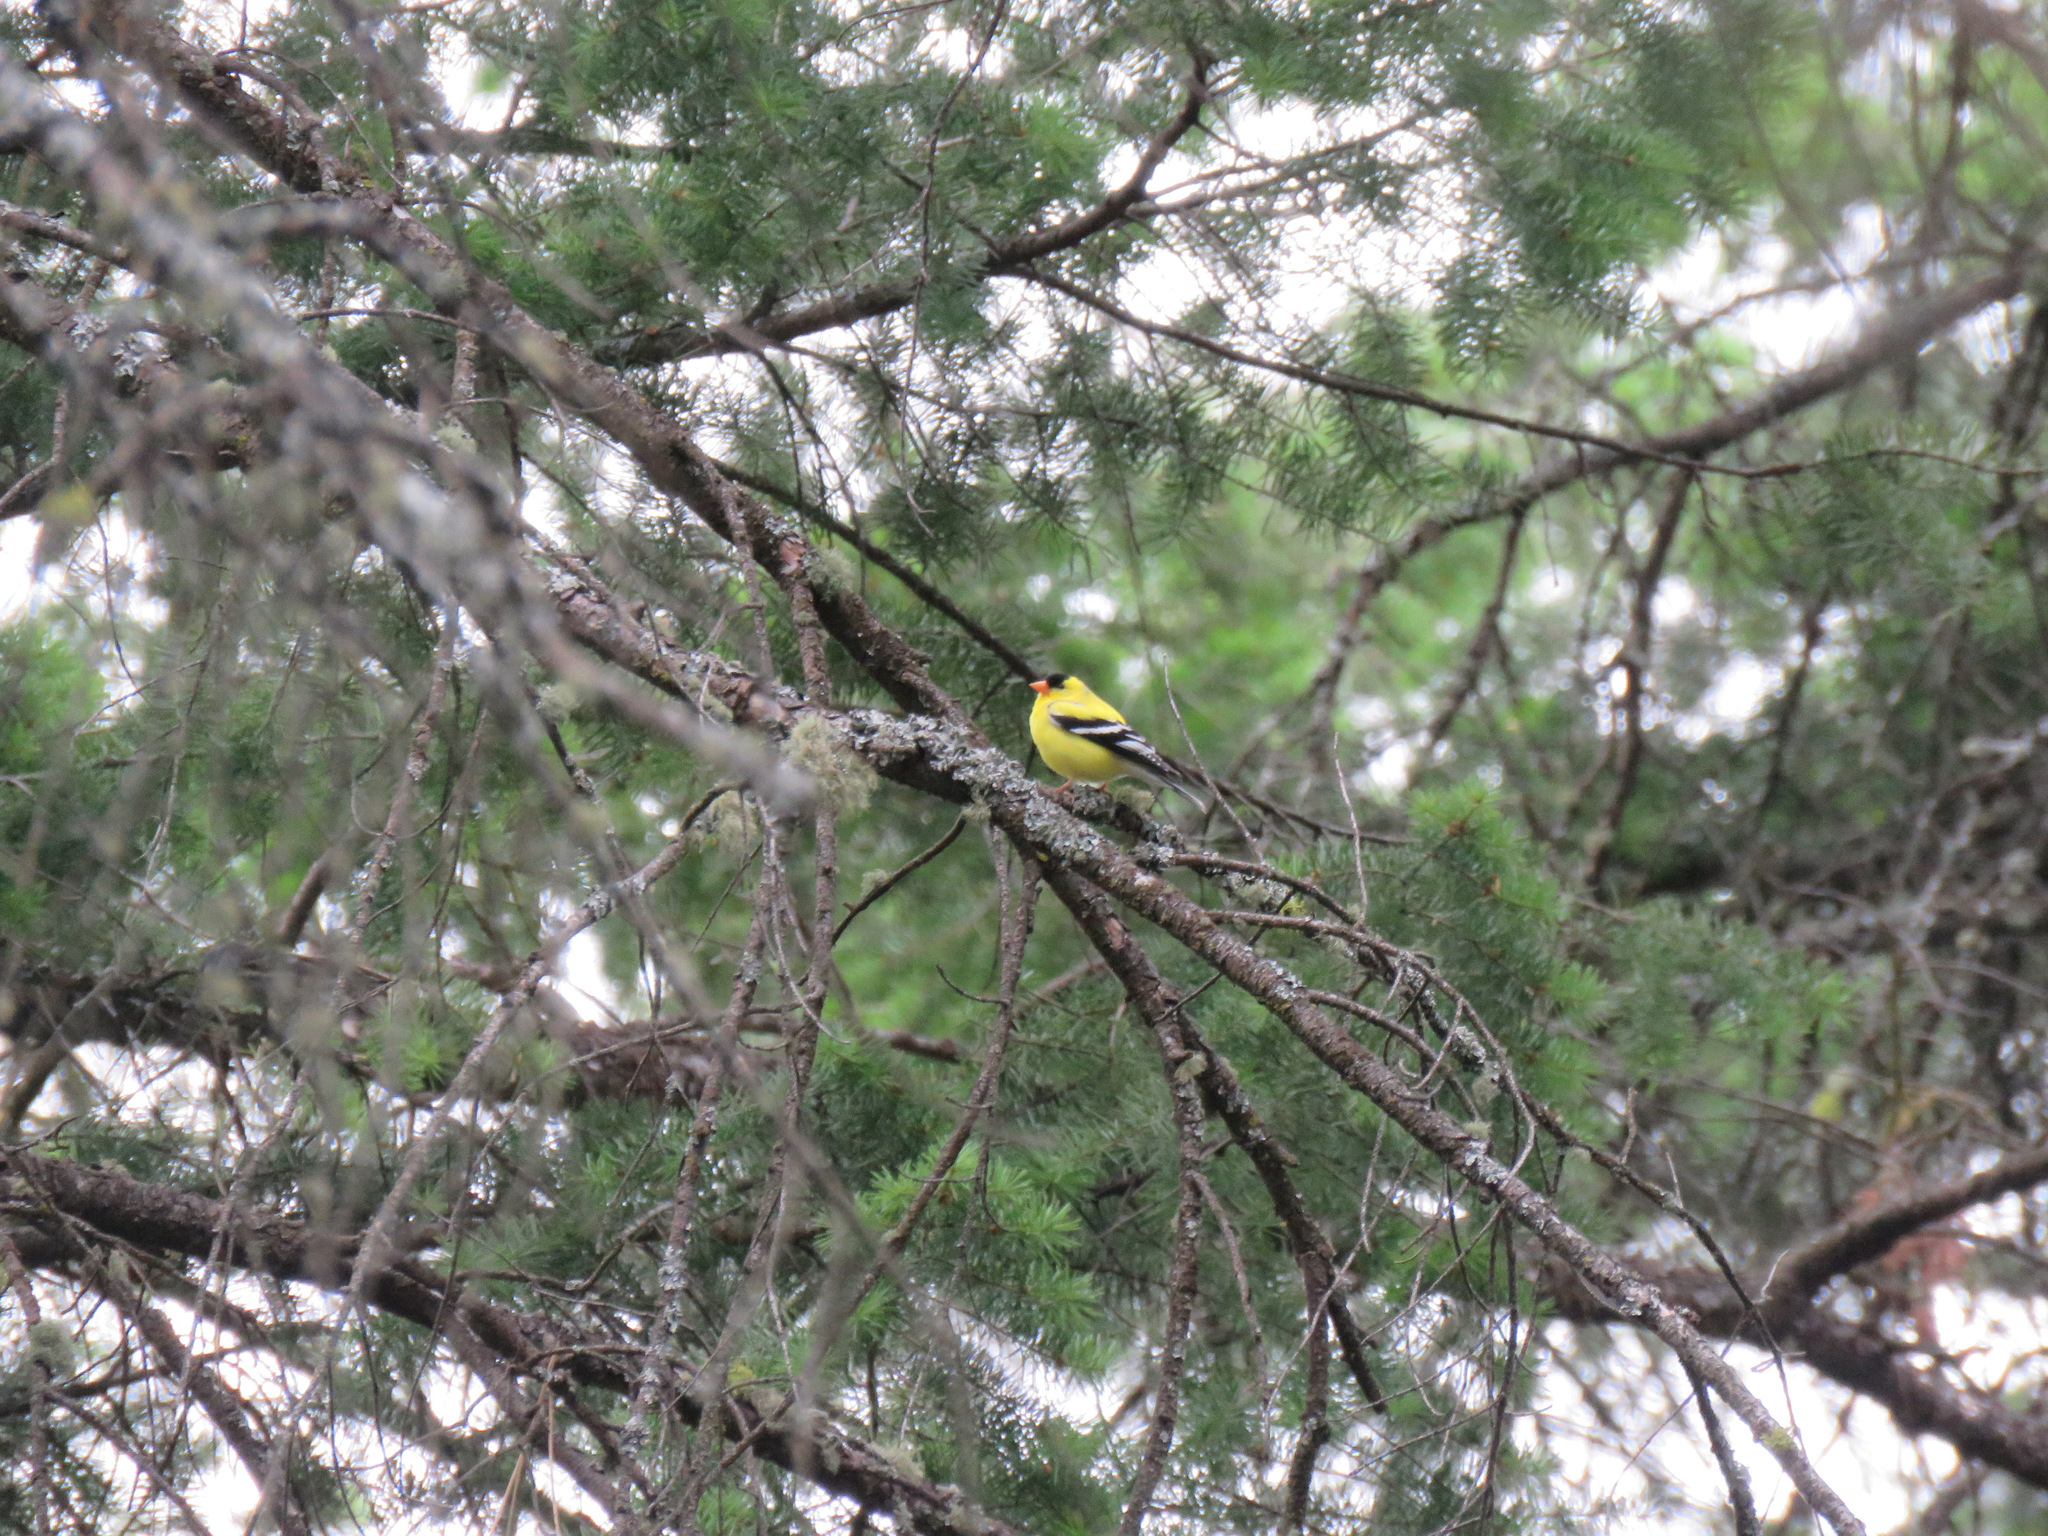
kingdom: Animalia
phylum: Chordata
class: Aves
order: Passeriformes
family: Fringillidae
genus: Spinus
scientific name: Spinus tristis
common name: American goldfinch
